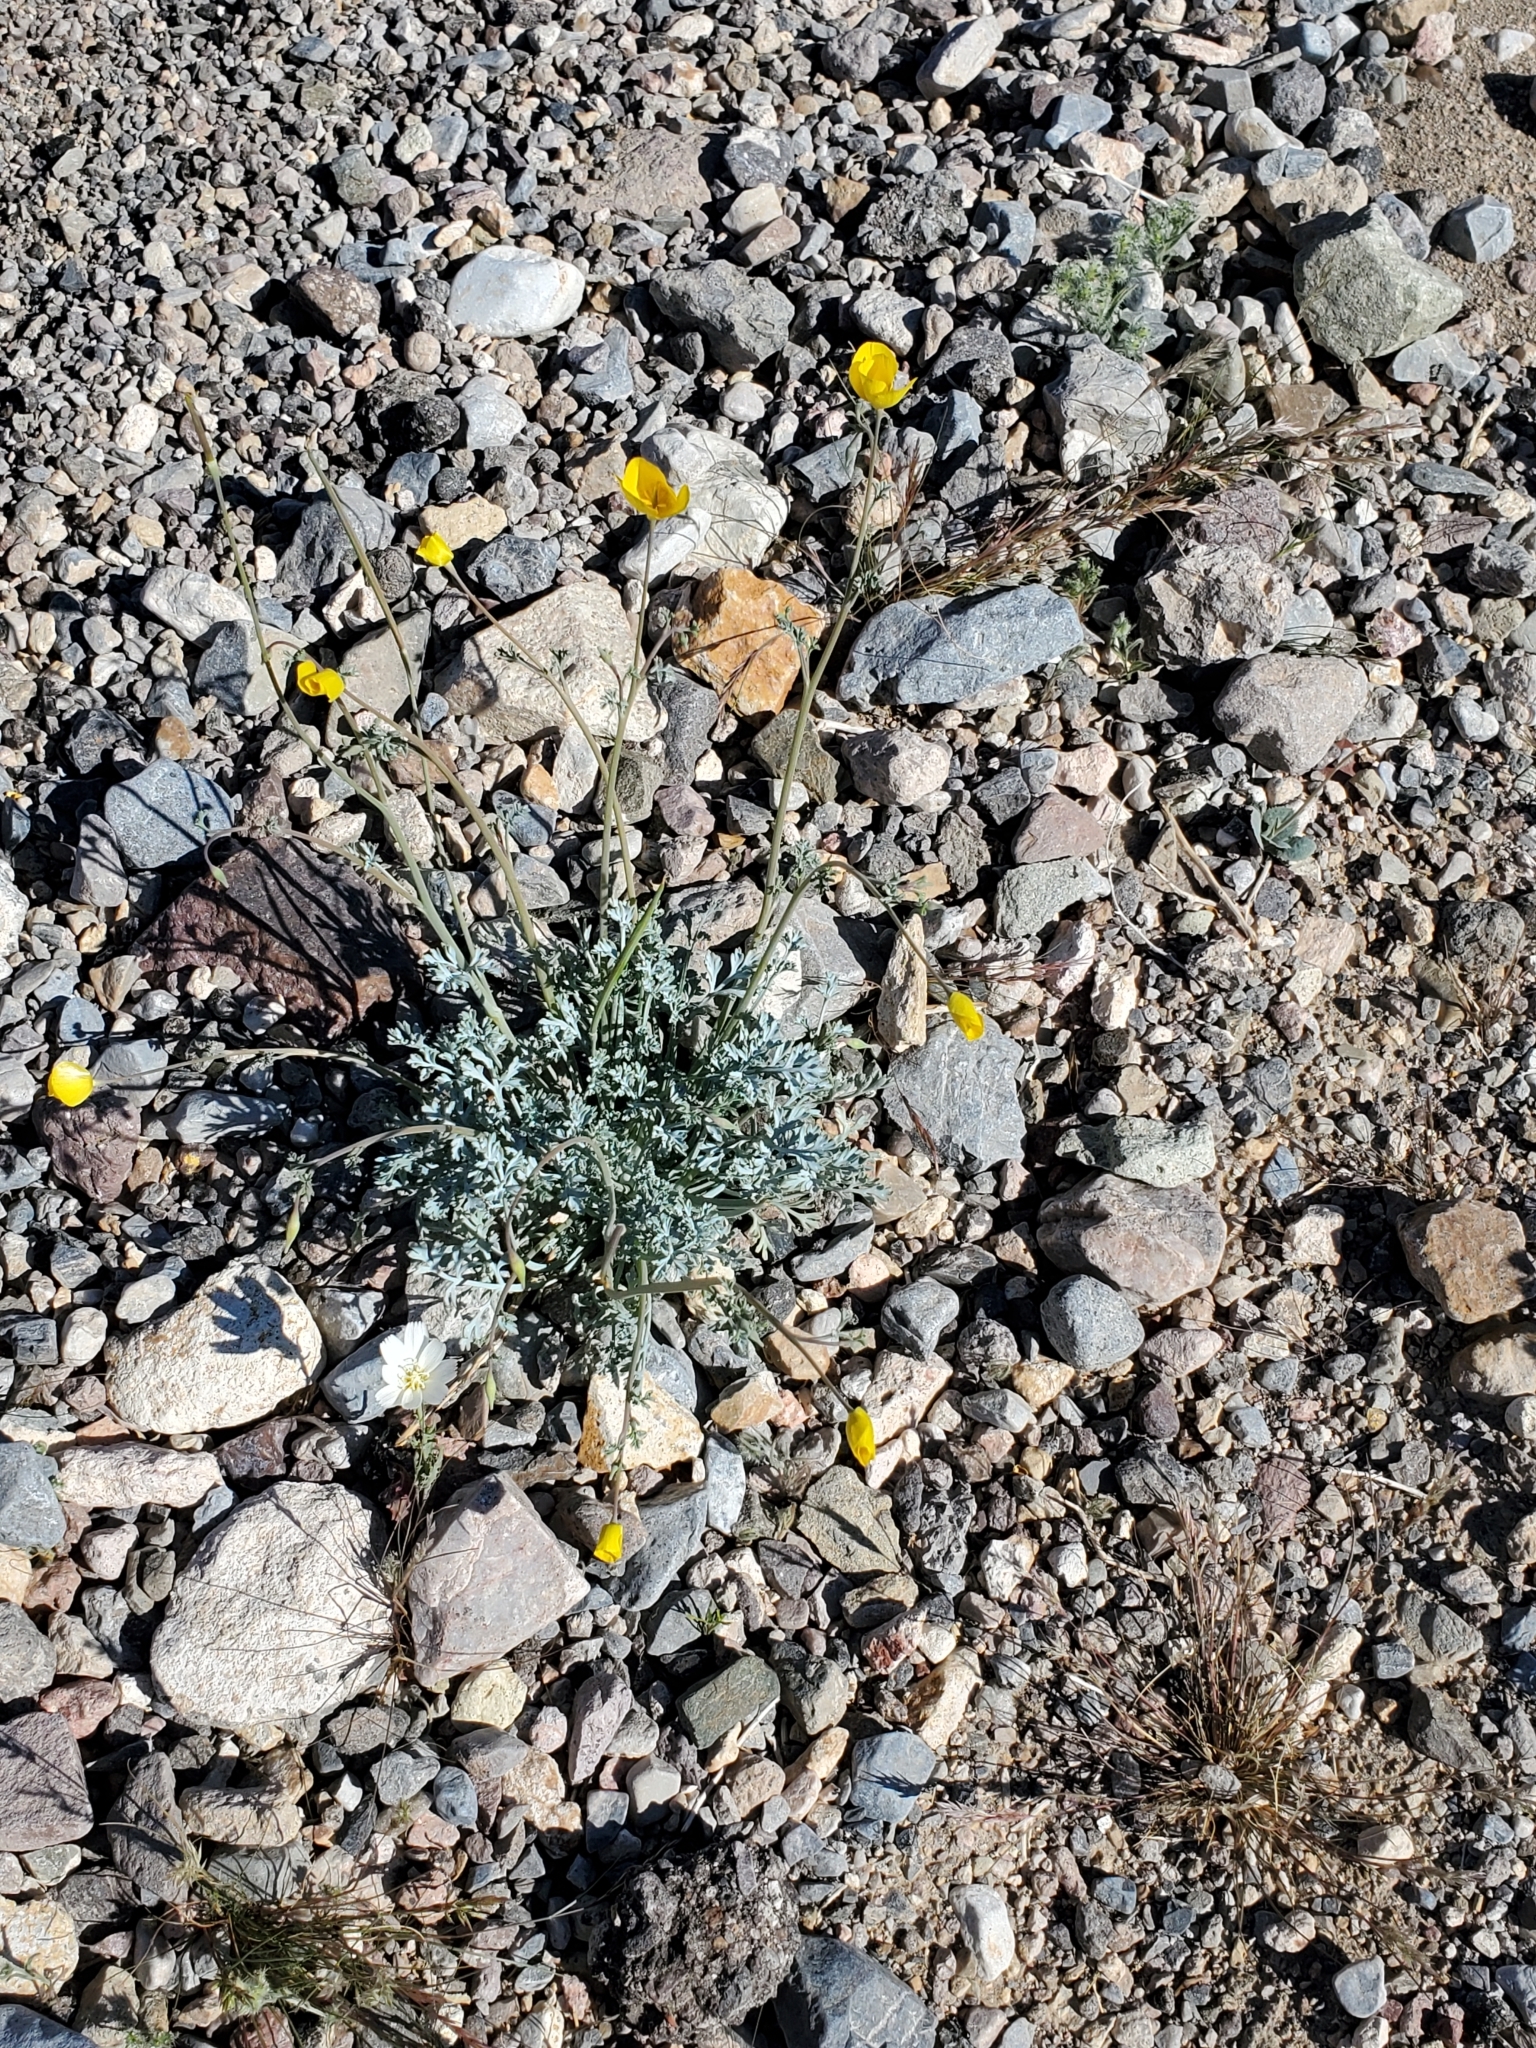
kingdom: Plantae
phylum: Tracheophyta
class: Magnoliopsida
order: Ranunculales
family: Papaveraceae
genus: Eschscholzia
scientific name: Eschscholzia minutiflora
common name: Small-flower california-poppy
